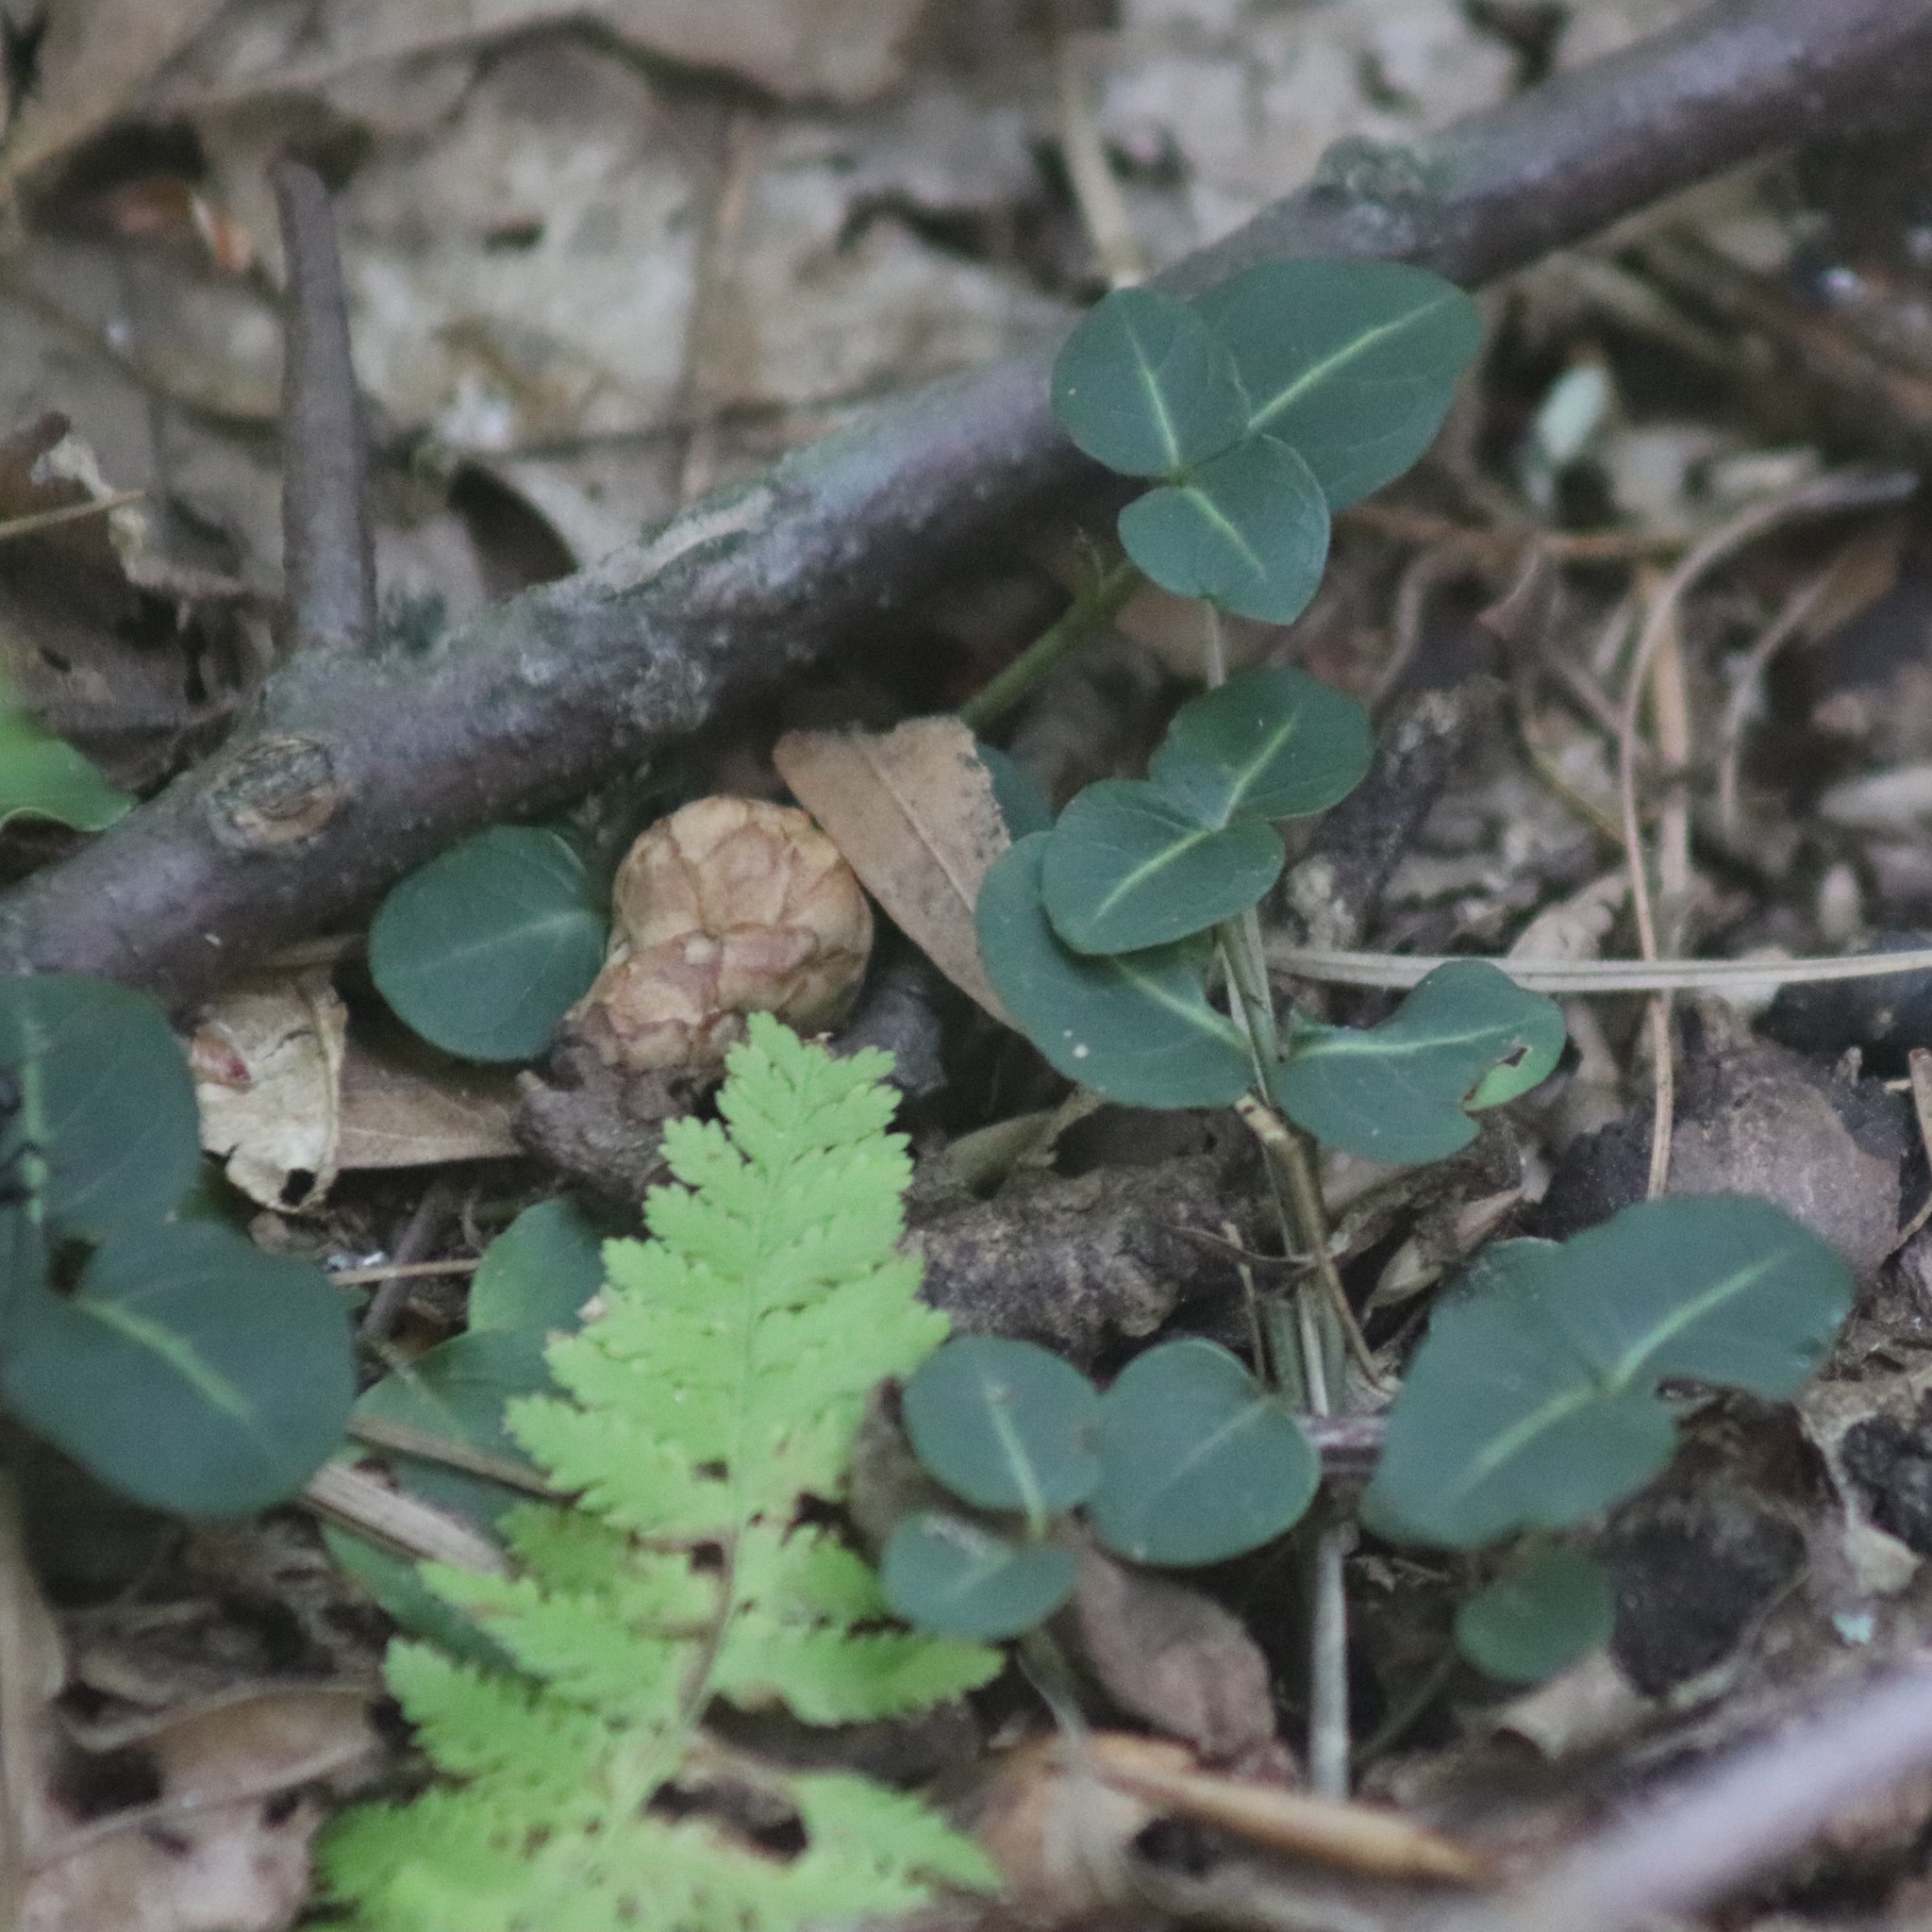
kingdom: Plantae
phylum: Tracheophyta
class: Magnoliopsida
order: Gentianales
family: Rubiaceae
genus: Mitchella
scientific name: Mitchella repens
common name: Partridge-berry
